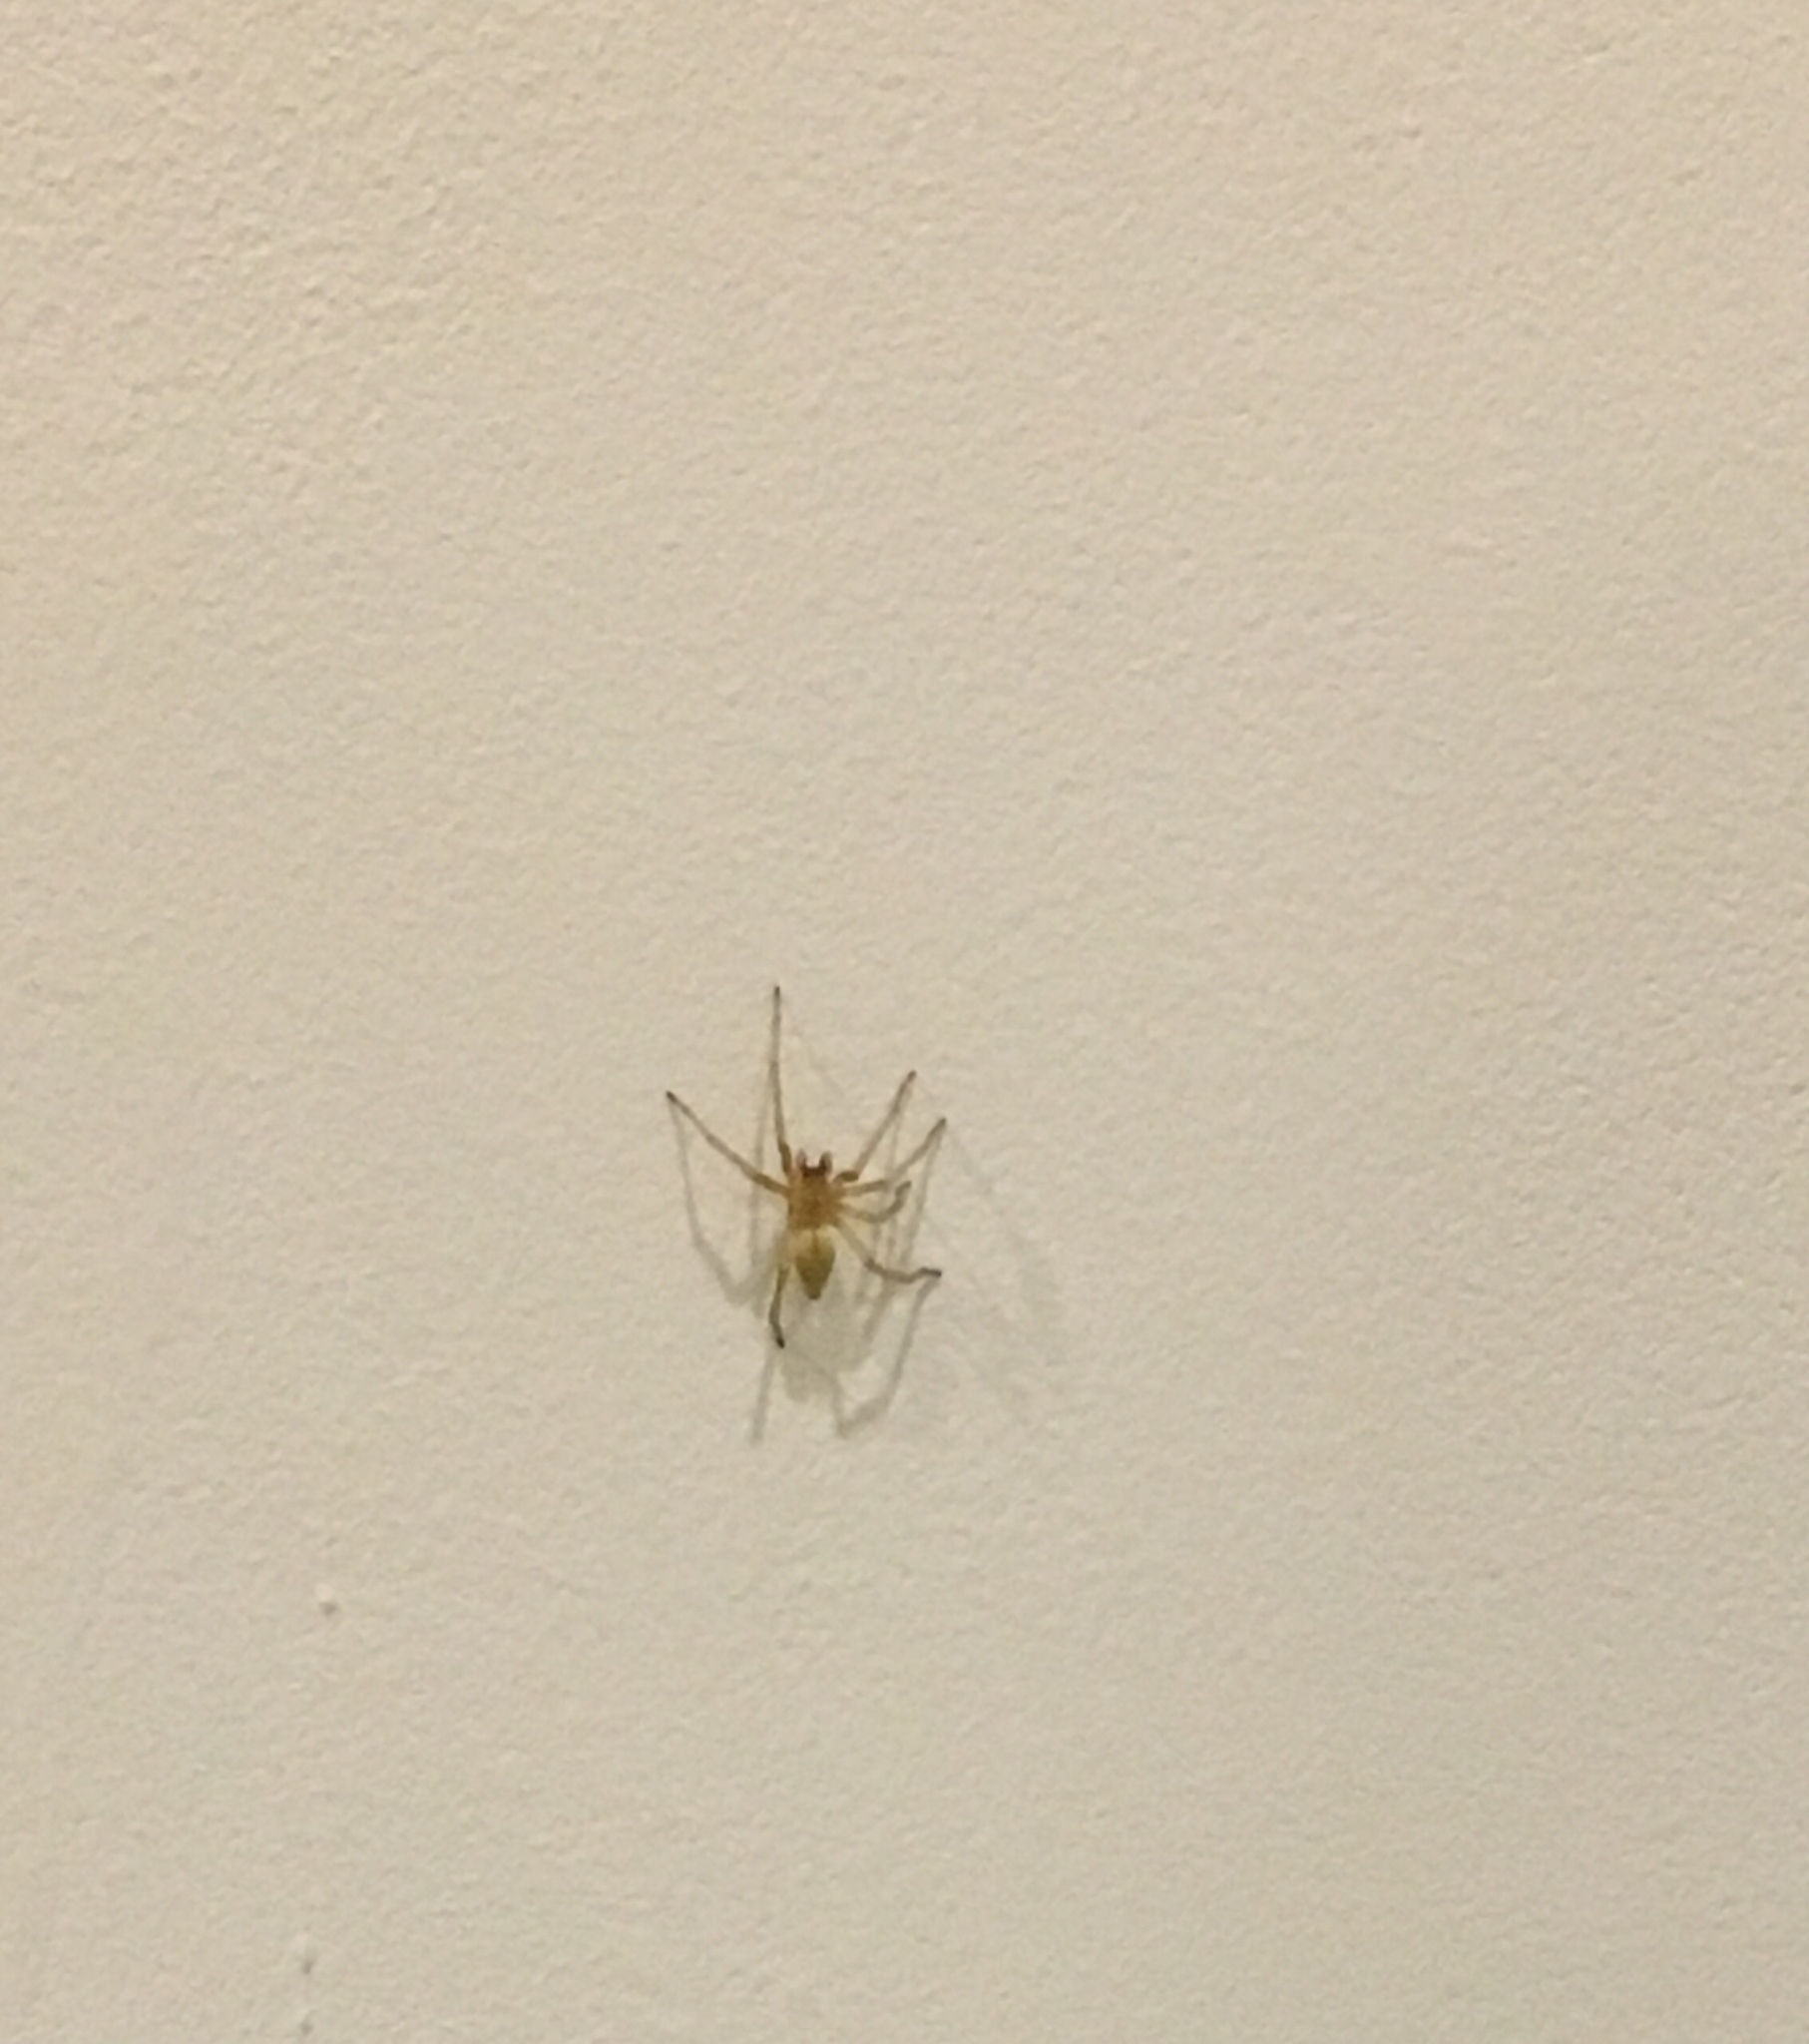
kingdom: Animalia
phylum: Arthropoda
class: Arachnida
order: Araneae
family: Cheiracanthiidae
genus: Cheiracanthium
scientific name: Cheiracanthium mildei
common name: Northern yellow sac spider
